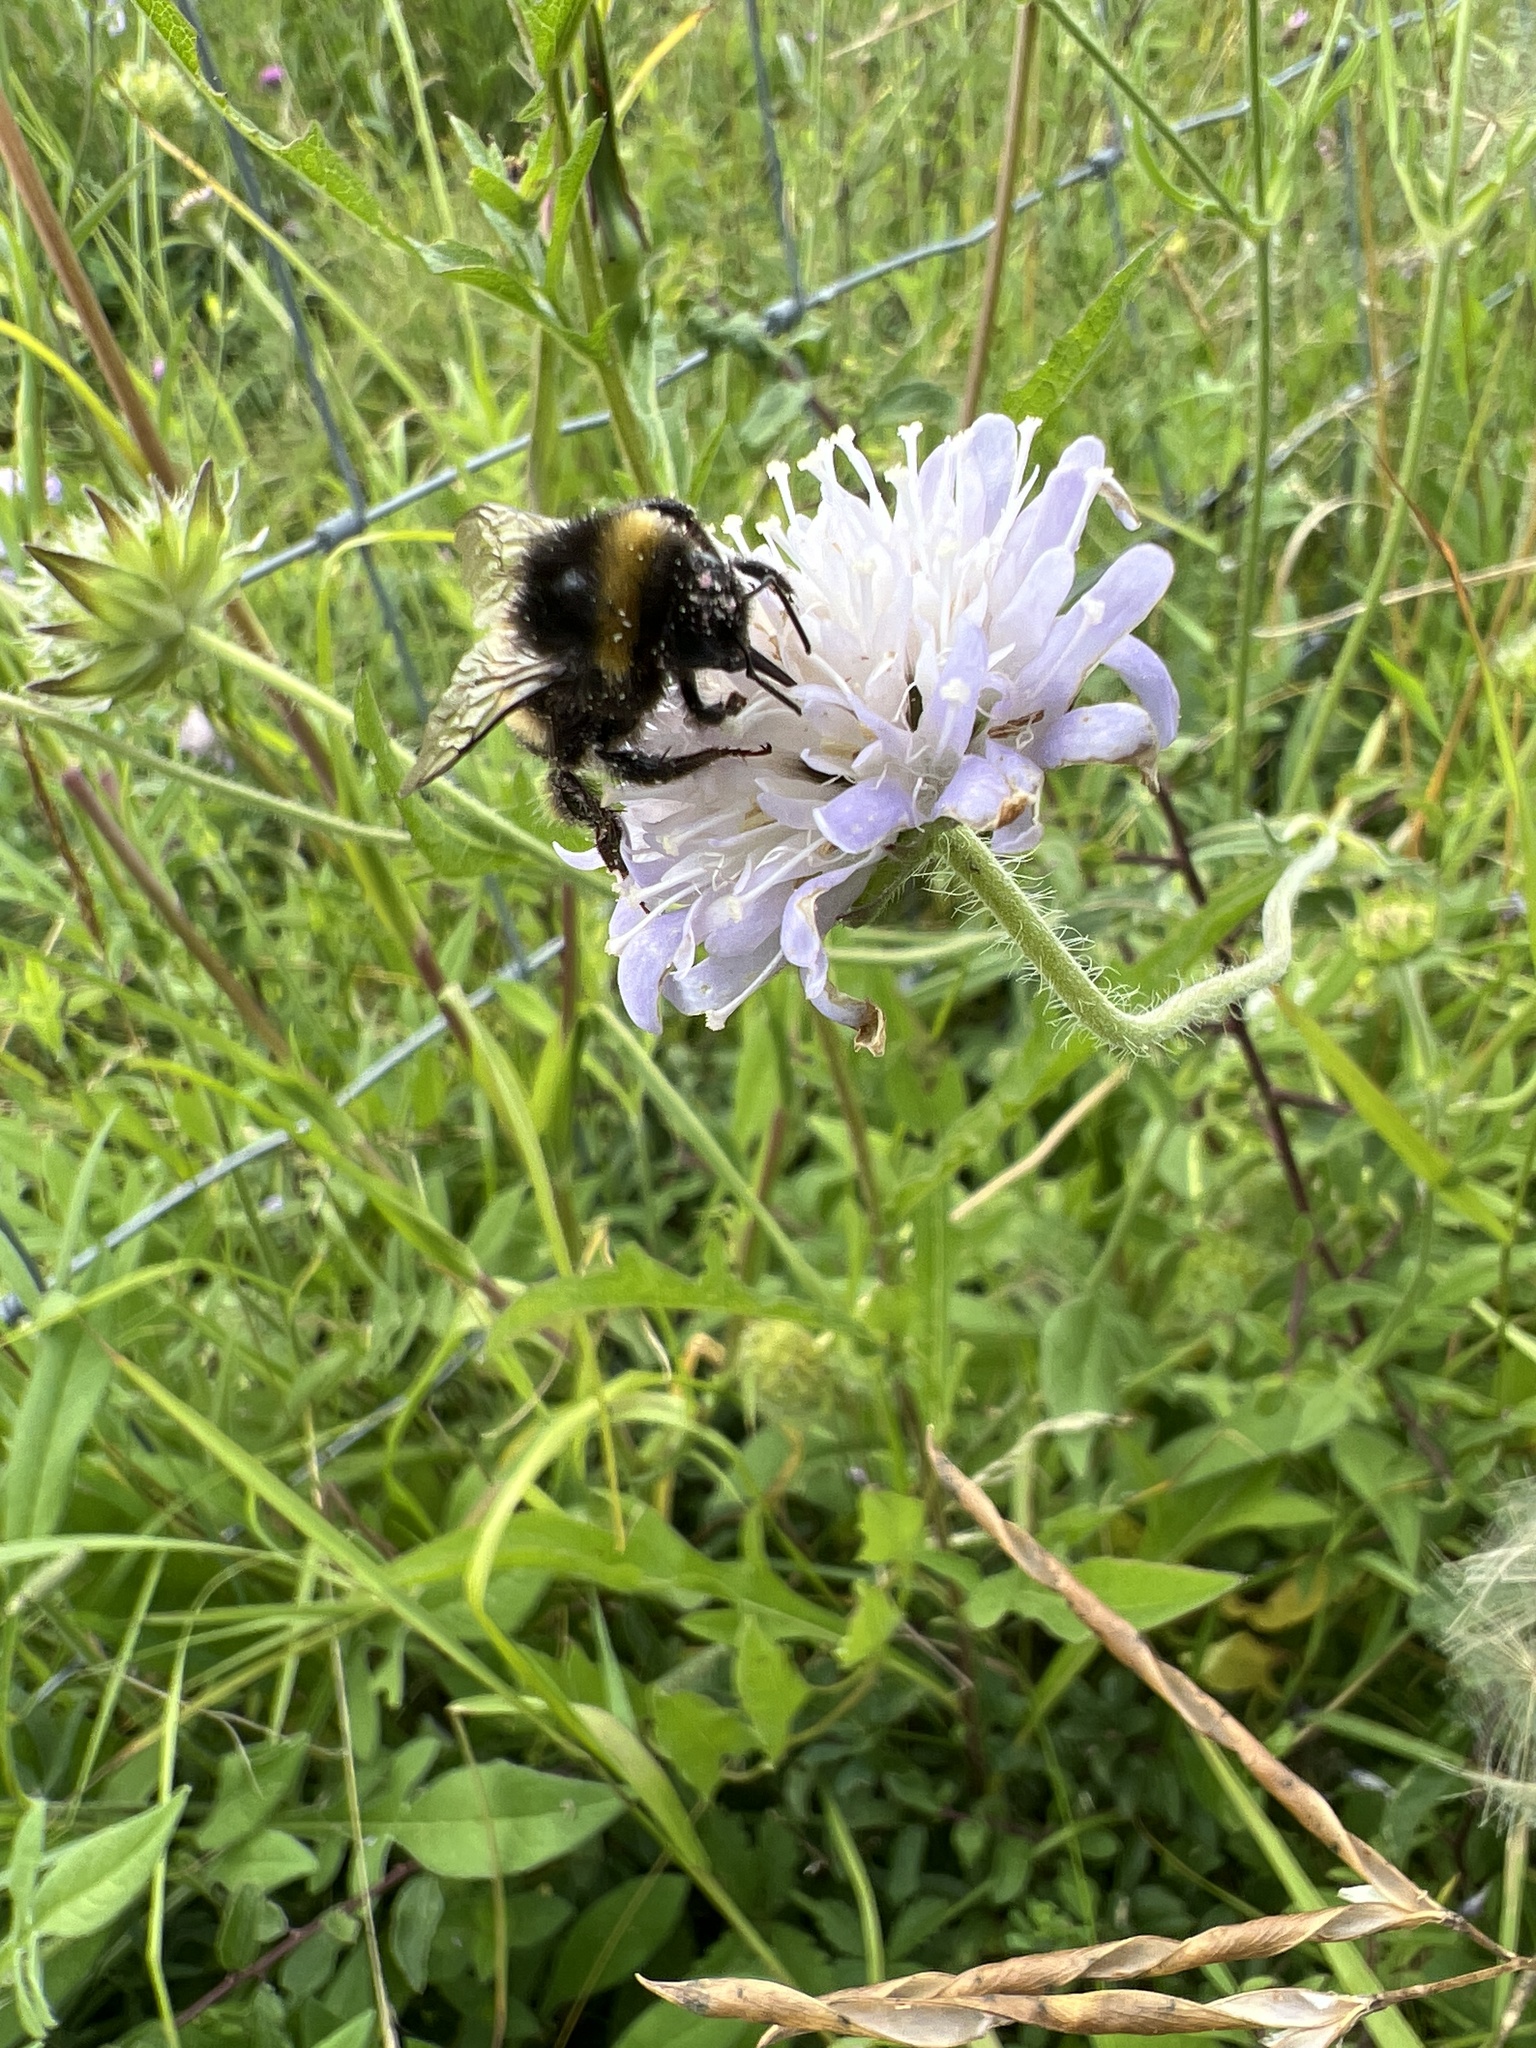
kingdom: Plantae
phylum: Tracheophyta
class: Magnoliopsida
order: Dipsacales
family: Caprifoliaceae
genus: Knautia
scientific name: Knautia arvensis
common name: Field scabiosa
